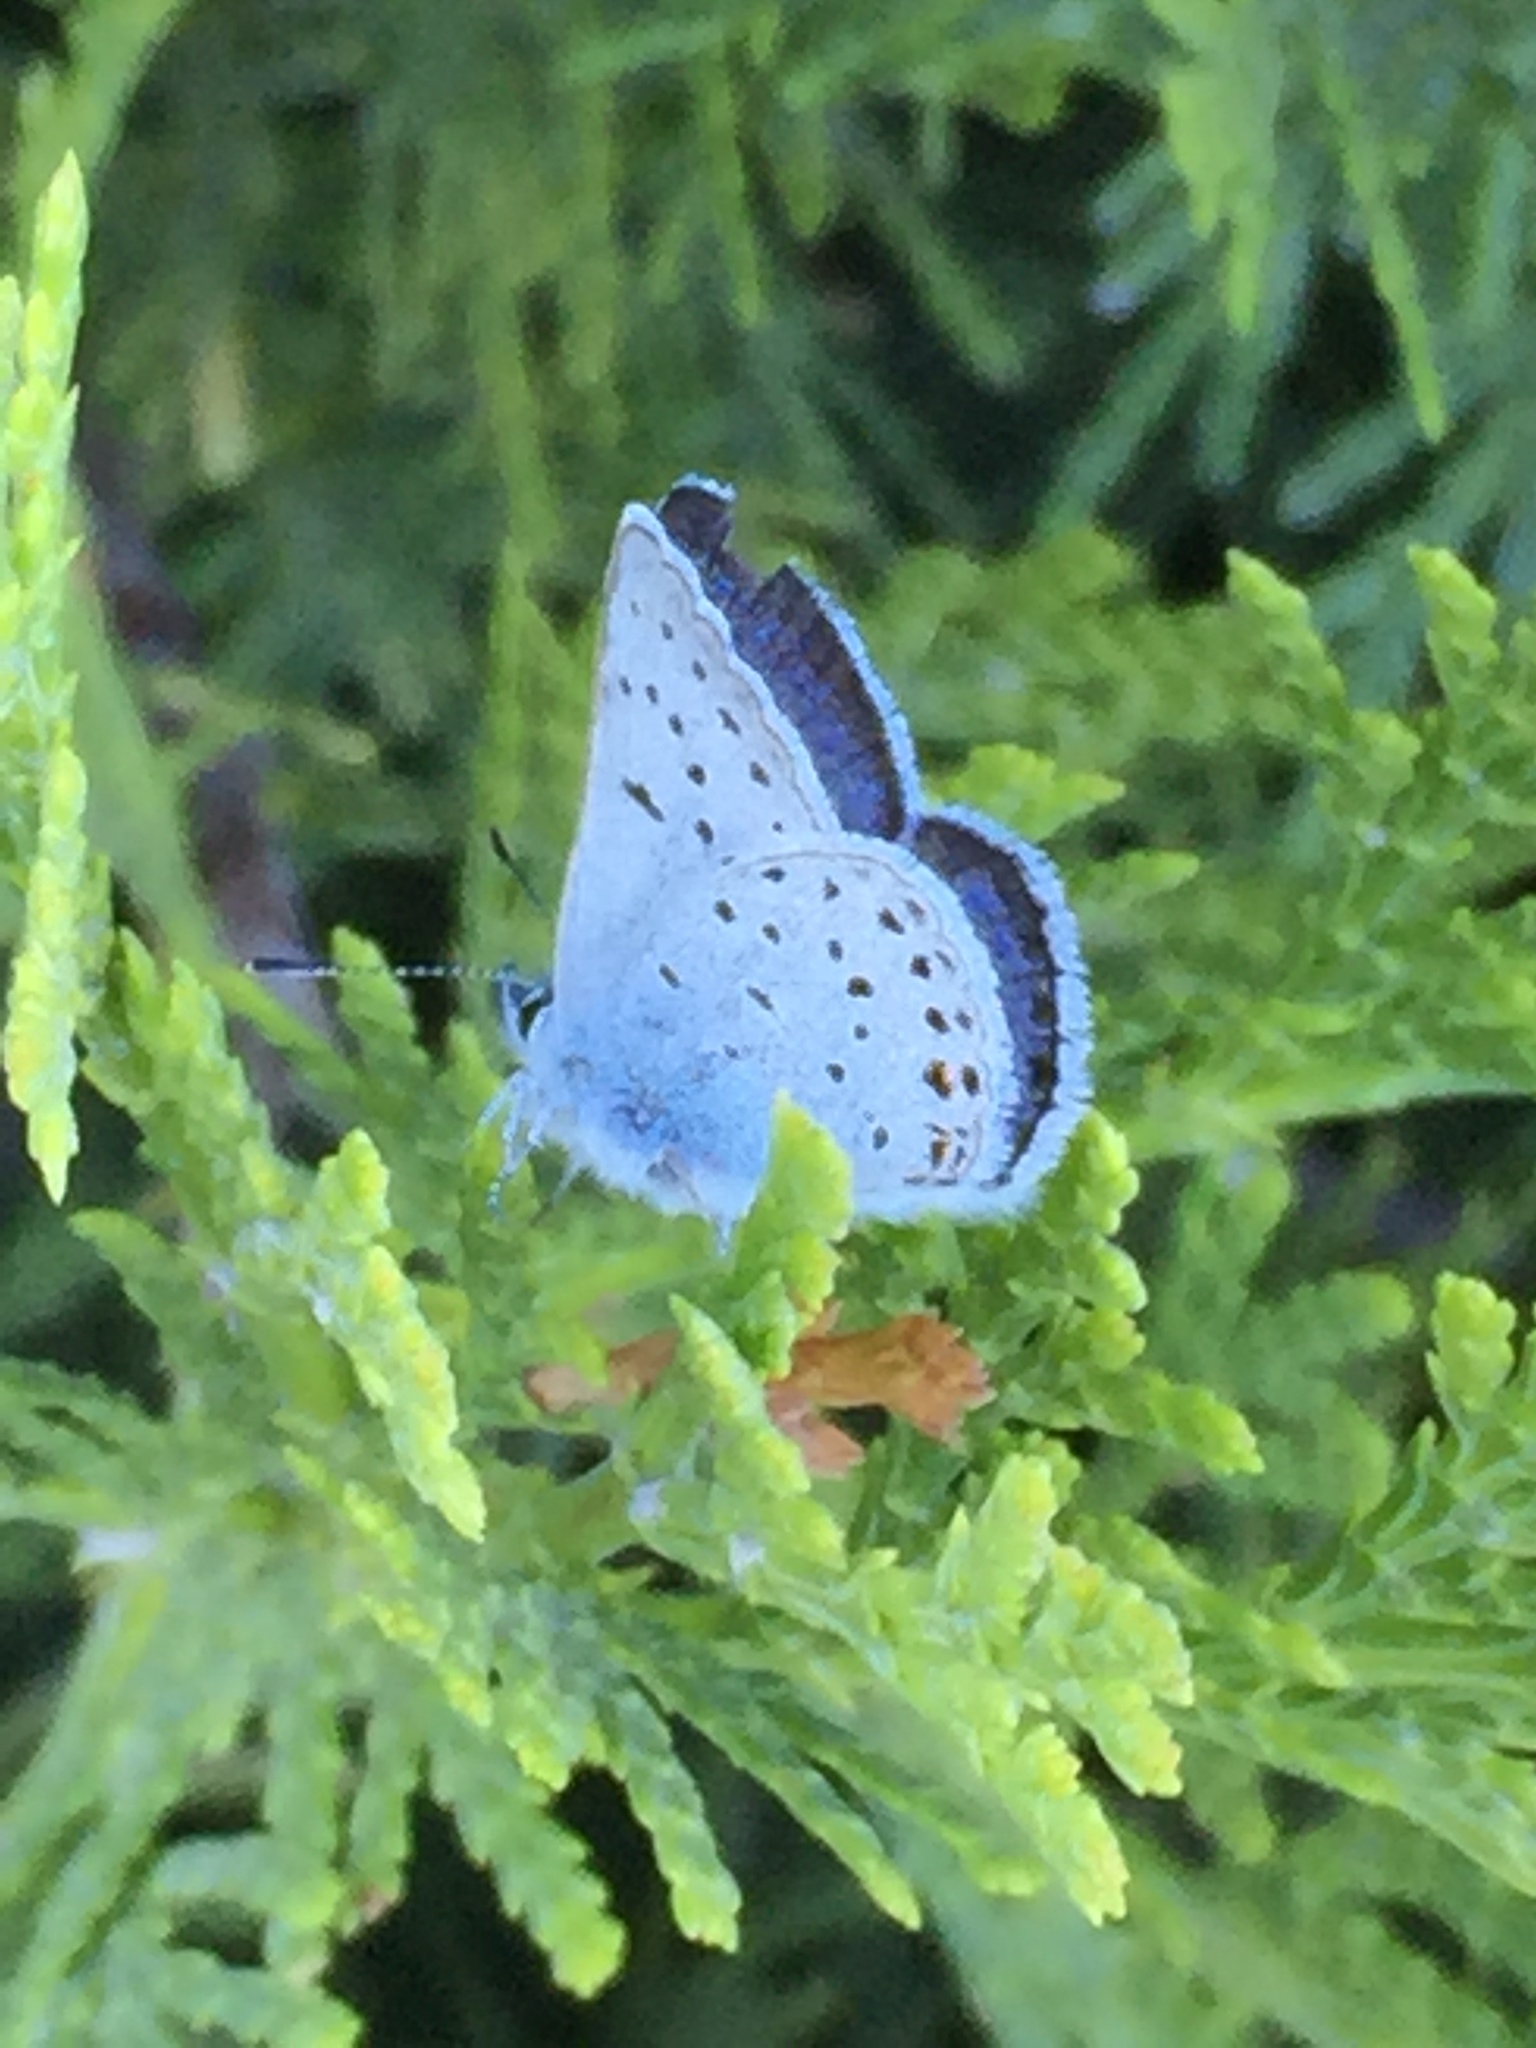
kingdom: Animalia
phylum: Arthropoda
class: Insecta
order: Lepidoptera
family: Lycaenidae
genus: Icaricia
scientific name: Icaricia saepiolus
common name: Greenish blue
